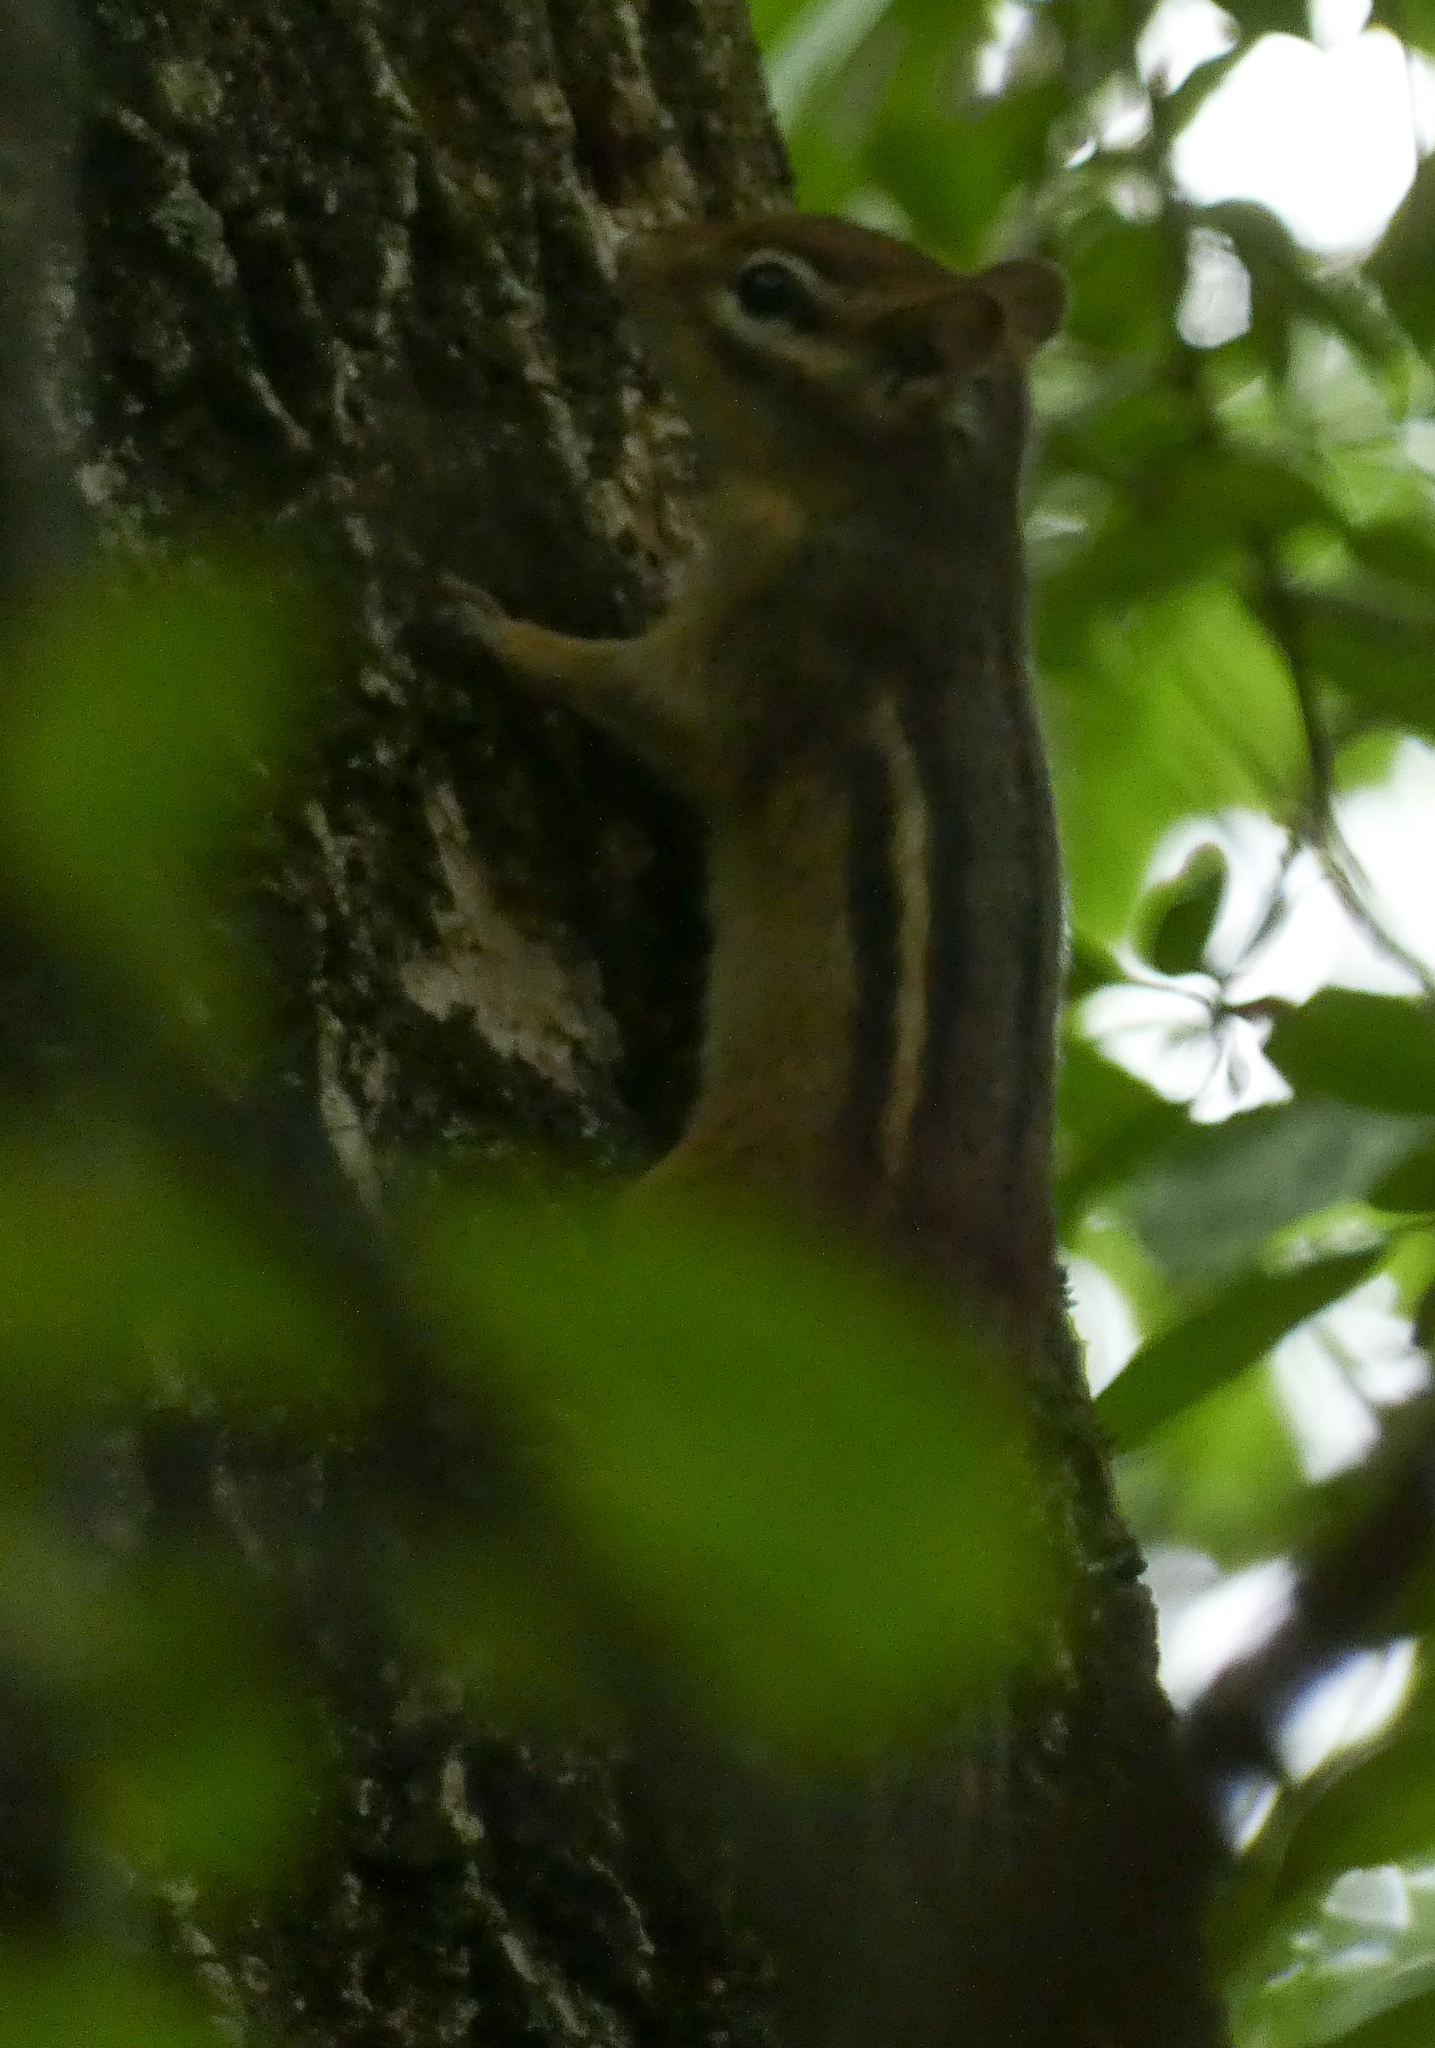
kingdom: Animalia
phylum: Chordata
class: Mammalia
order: Rodentia
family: Sciuridae
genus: Tamias
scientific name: Tamias striatus
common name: Eastern chipmunk
